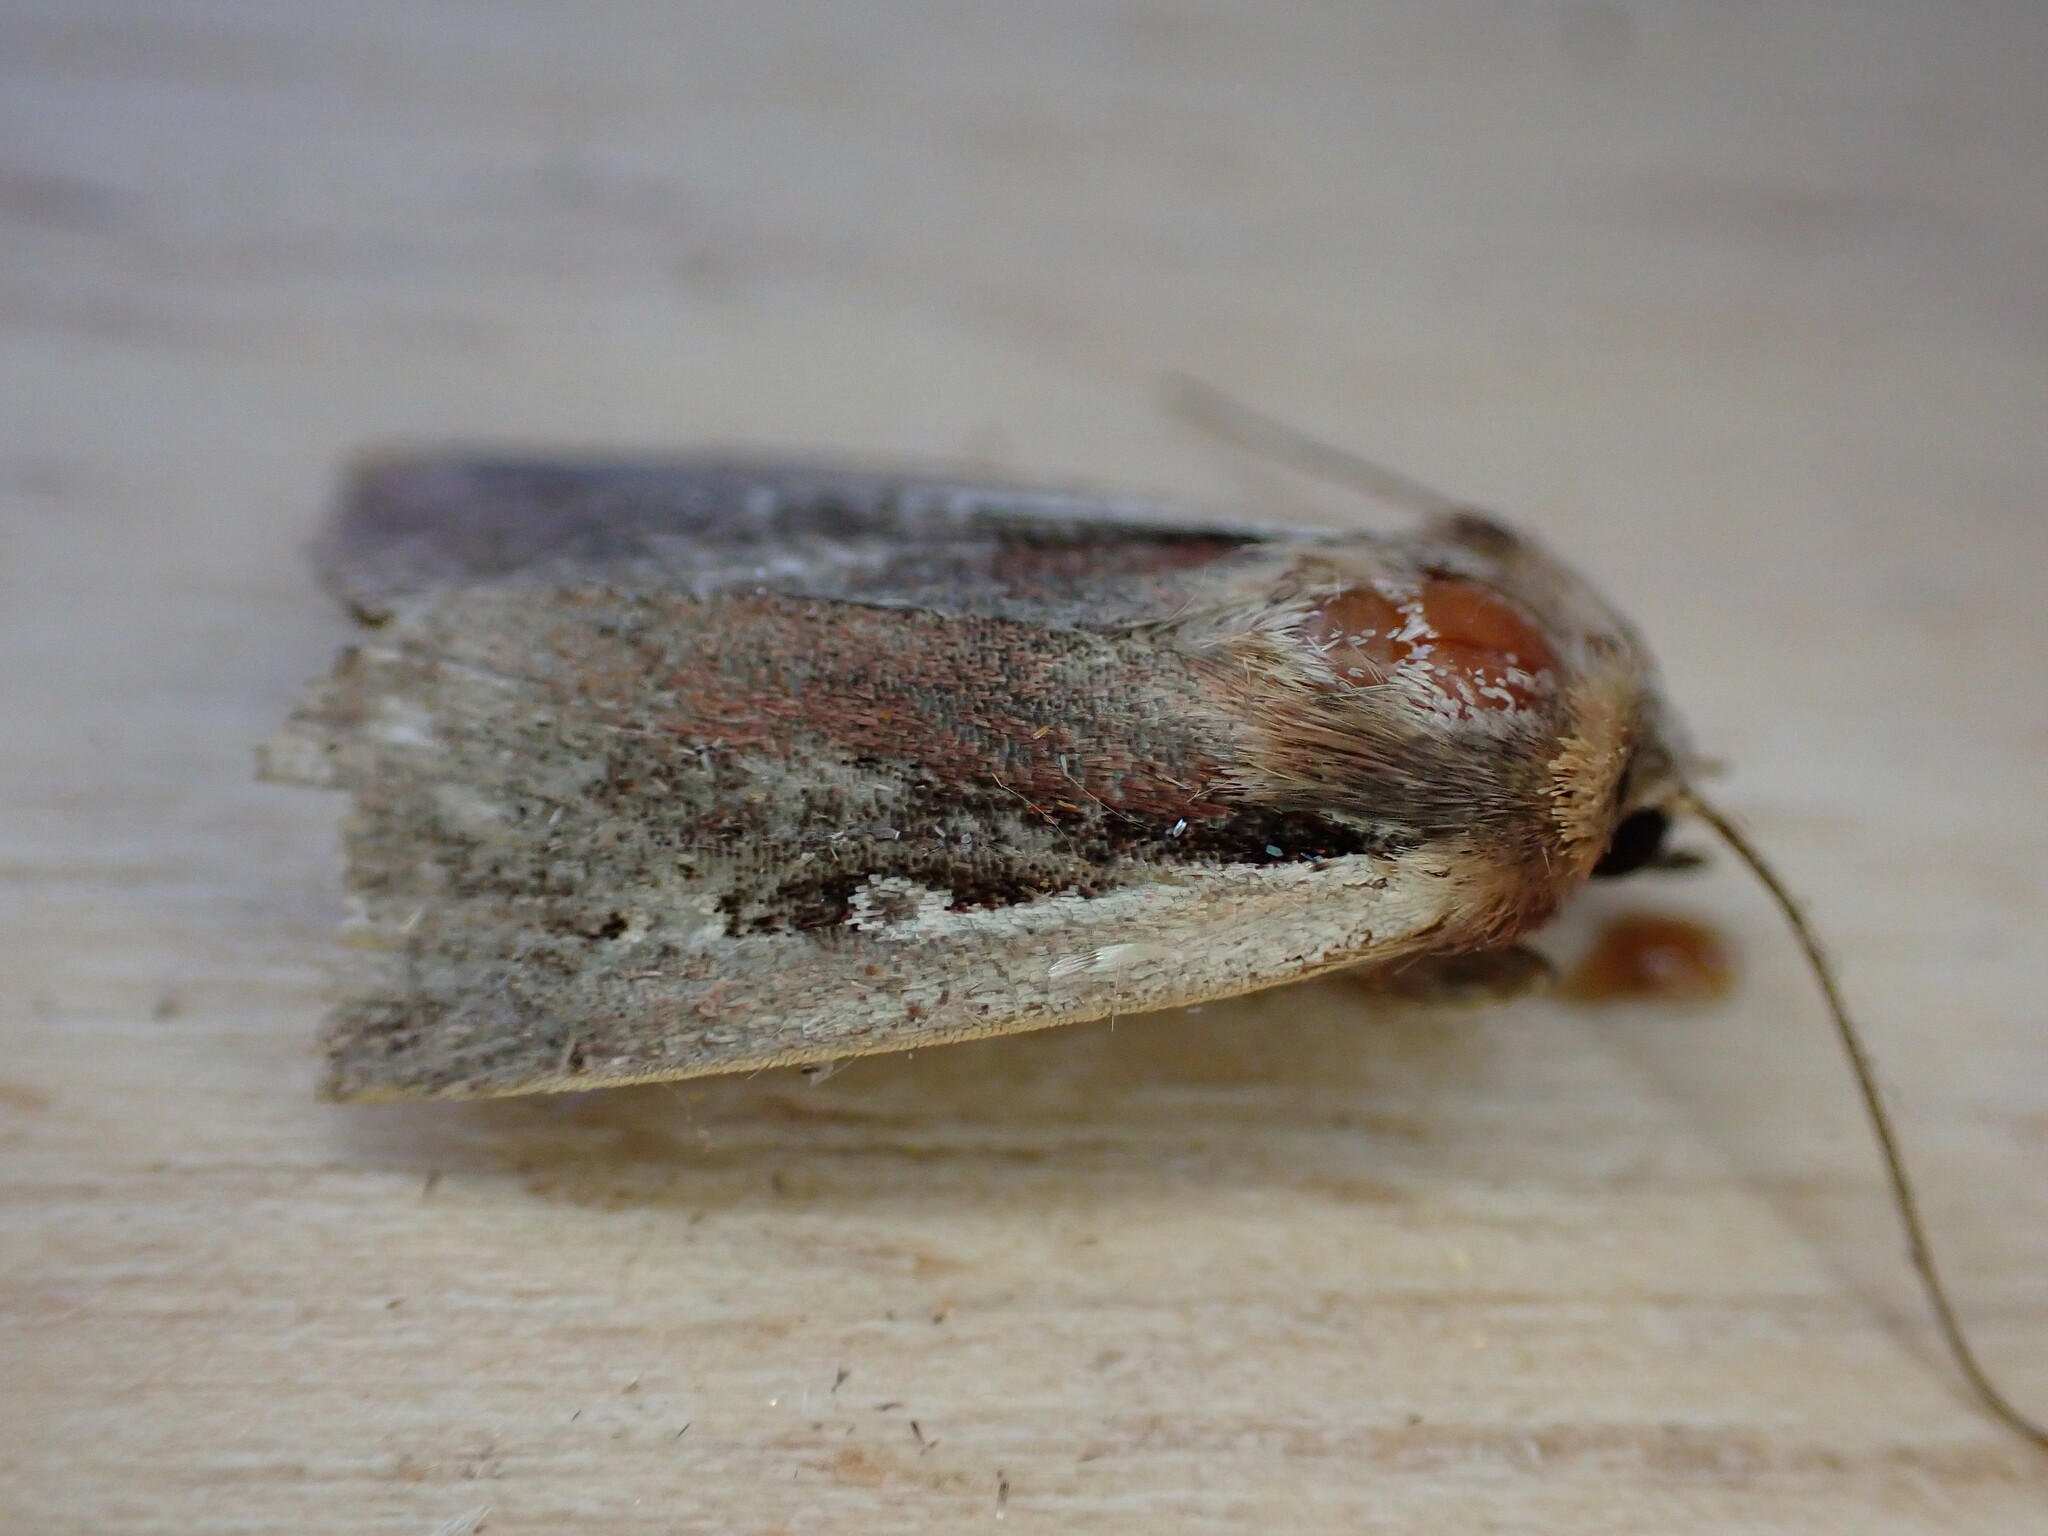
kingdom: Animalia
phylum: Arthropoda
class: Insecta
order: Lepidoptera
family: Noctuidae
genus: Ochropleura
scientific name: Ochropleura plecta
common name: Flame shoulder
